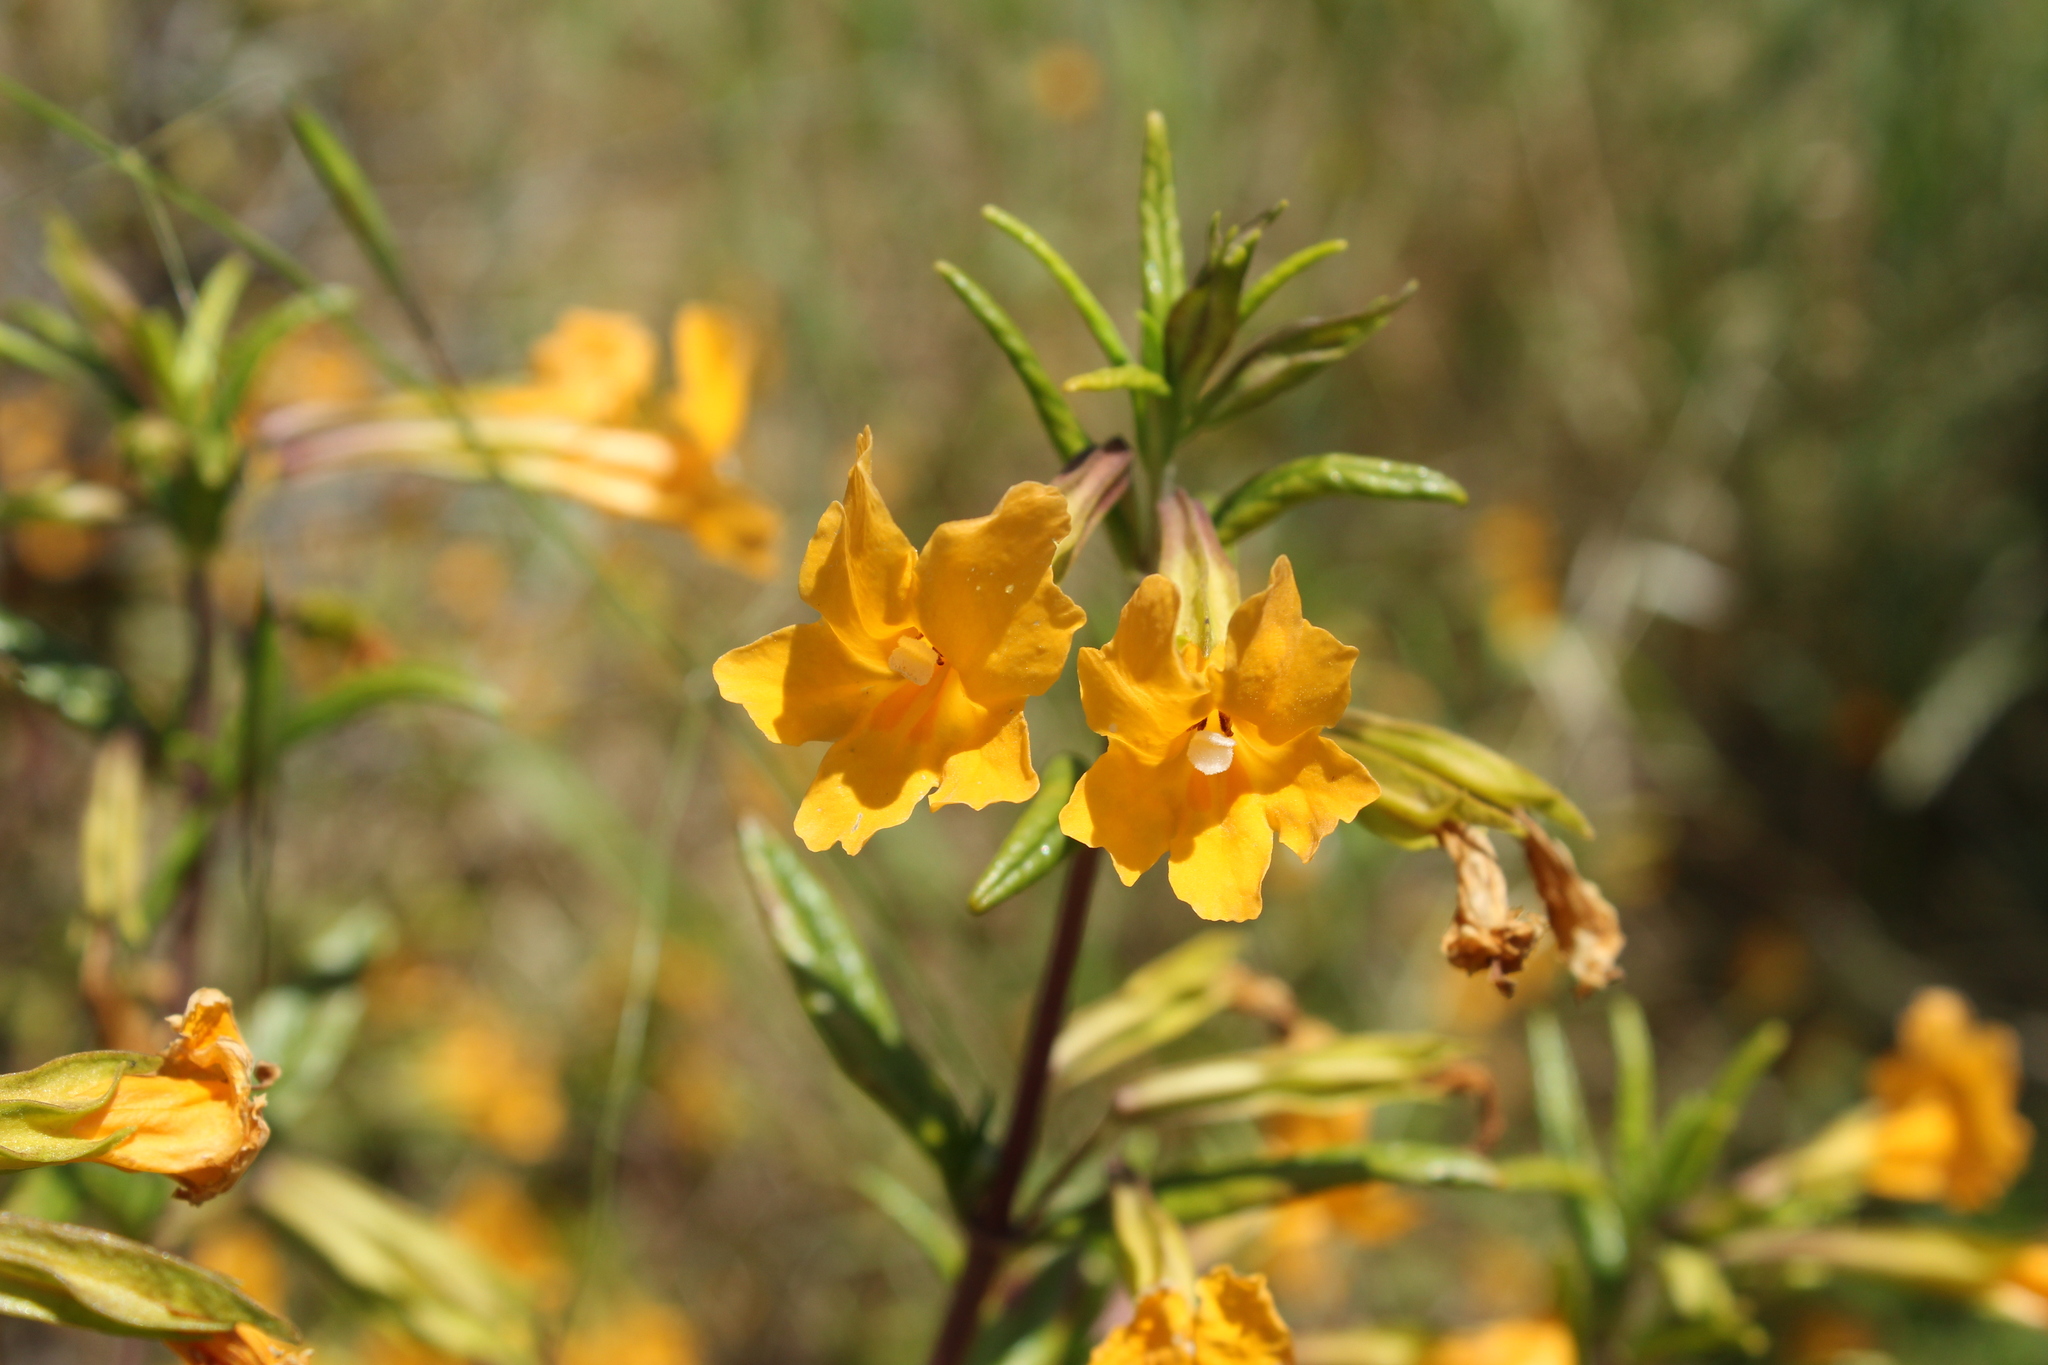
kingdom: Plantae
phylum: Tracheophyta
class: Magnoliopsida
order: Lamiales
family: Phrymaceae
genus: Diplacus
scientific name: Diplacus aurantiacus
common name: Bush monkey-flower
